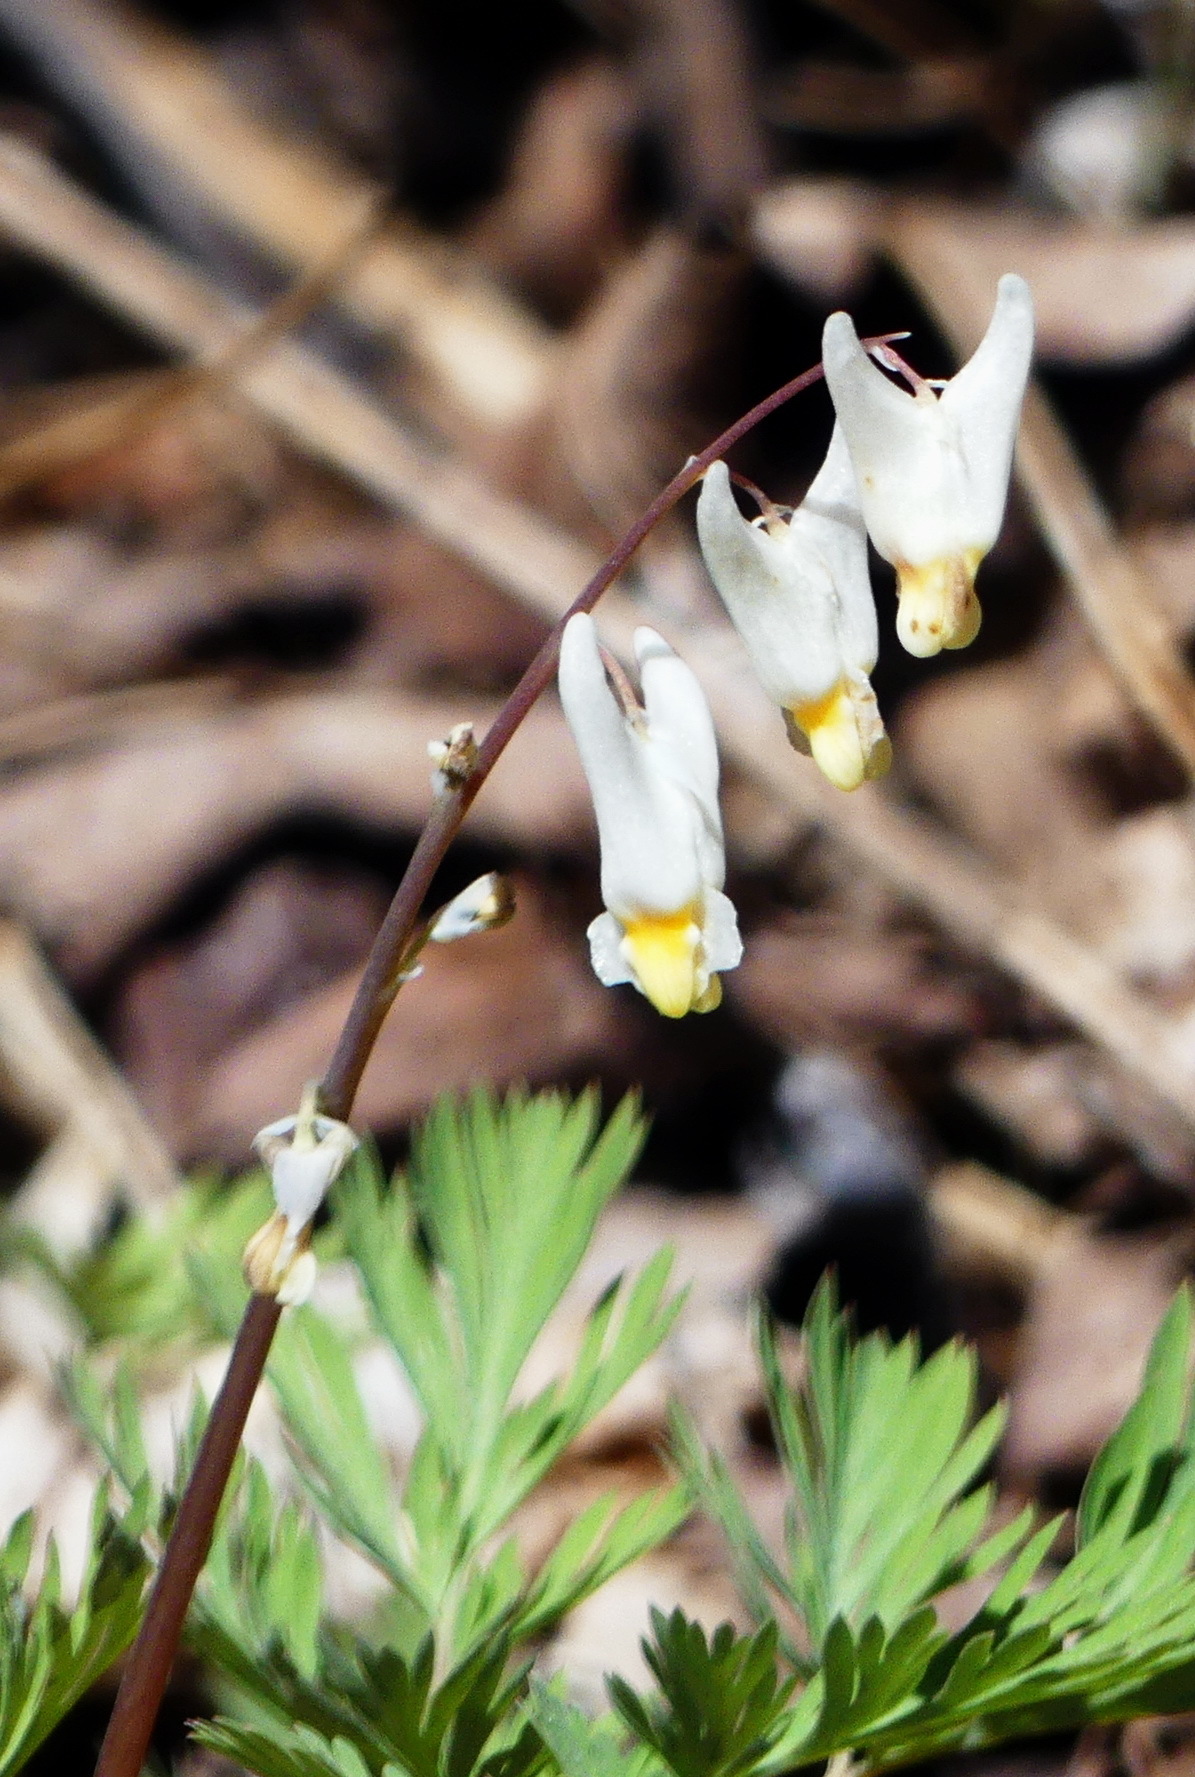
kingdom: Plantae
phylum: Tracheophyta
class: Magnoliopsida
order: Ranunculales
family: Papaveraceae
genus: Dicentra
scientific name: Dicentra cucullaria
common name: Dutchman's breeches
